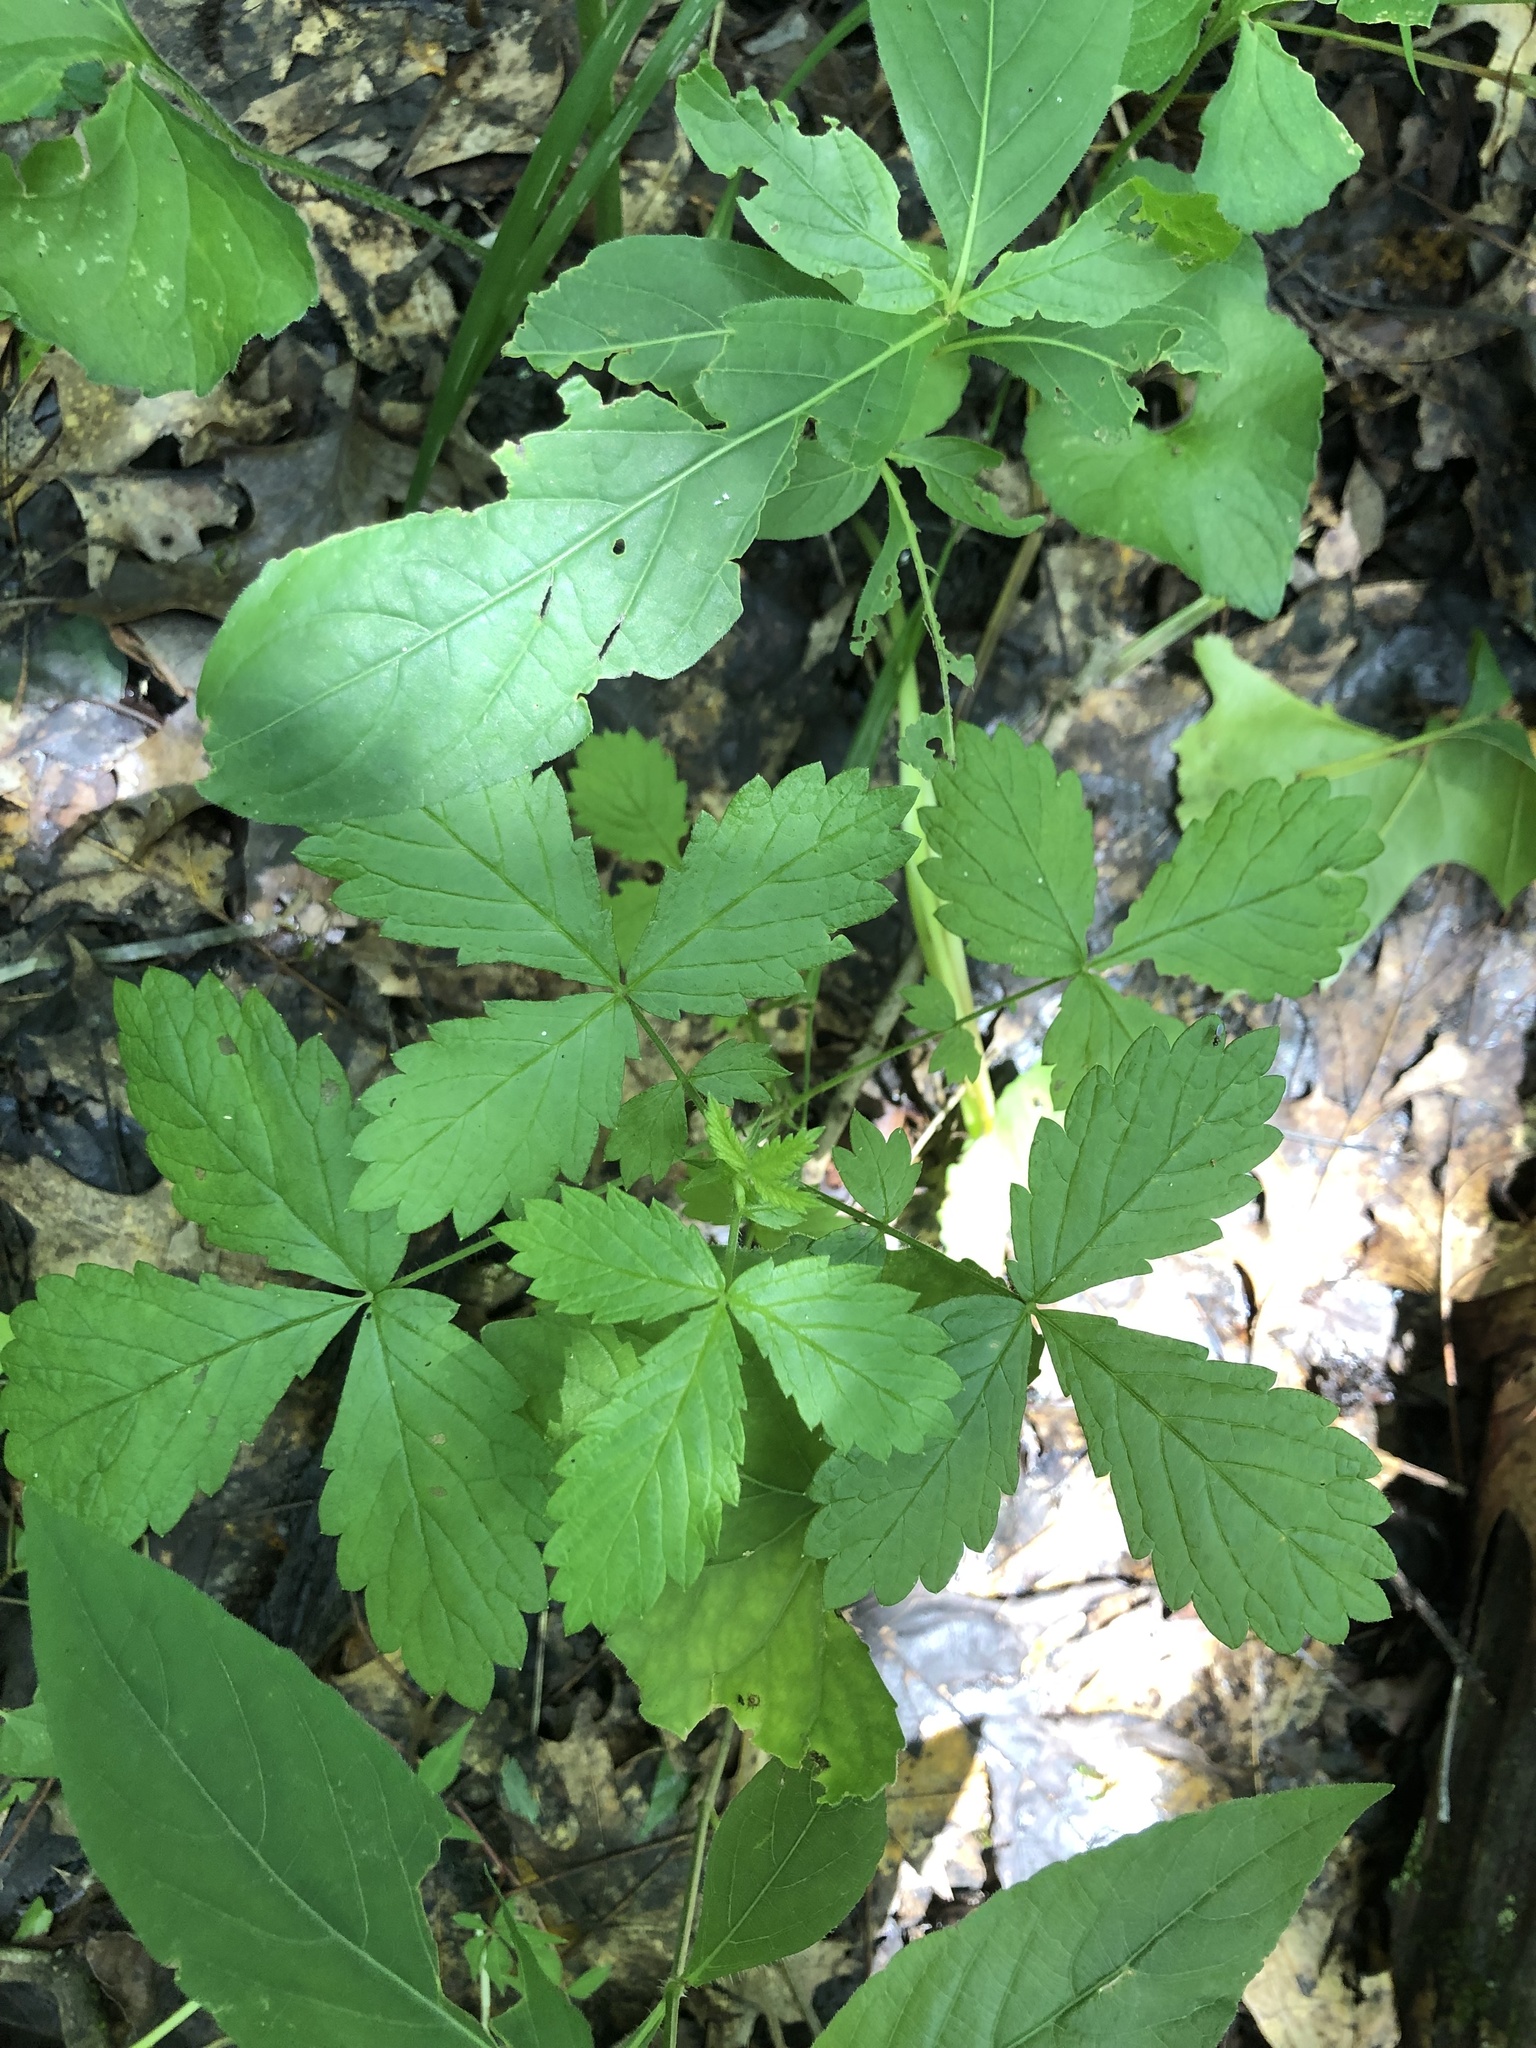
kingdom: Plantae
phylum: Tracheophyta
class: Magnoliopsida
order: Rosales
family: Rosaceae
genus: Agrimonia
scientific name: Agrimonia rostellata
